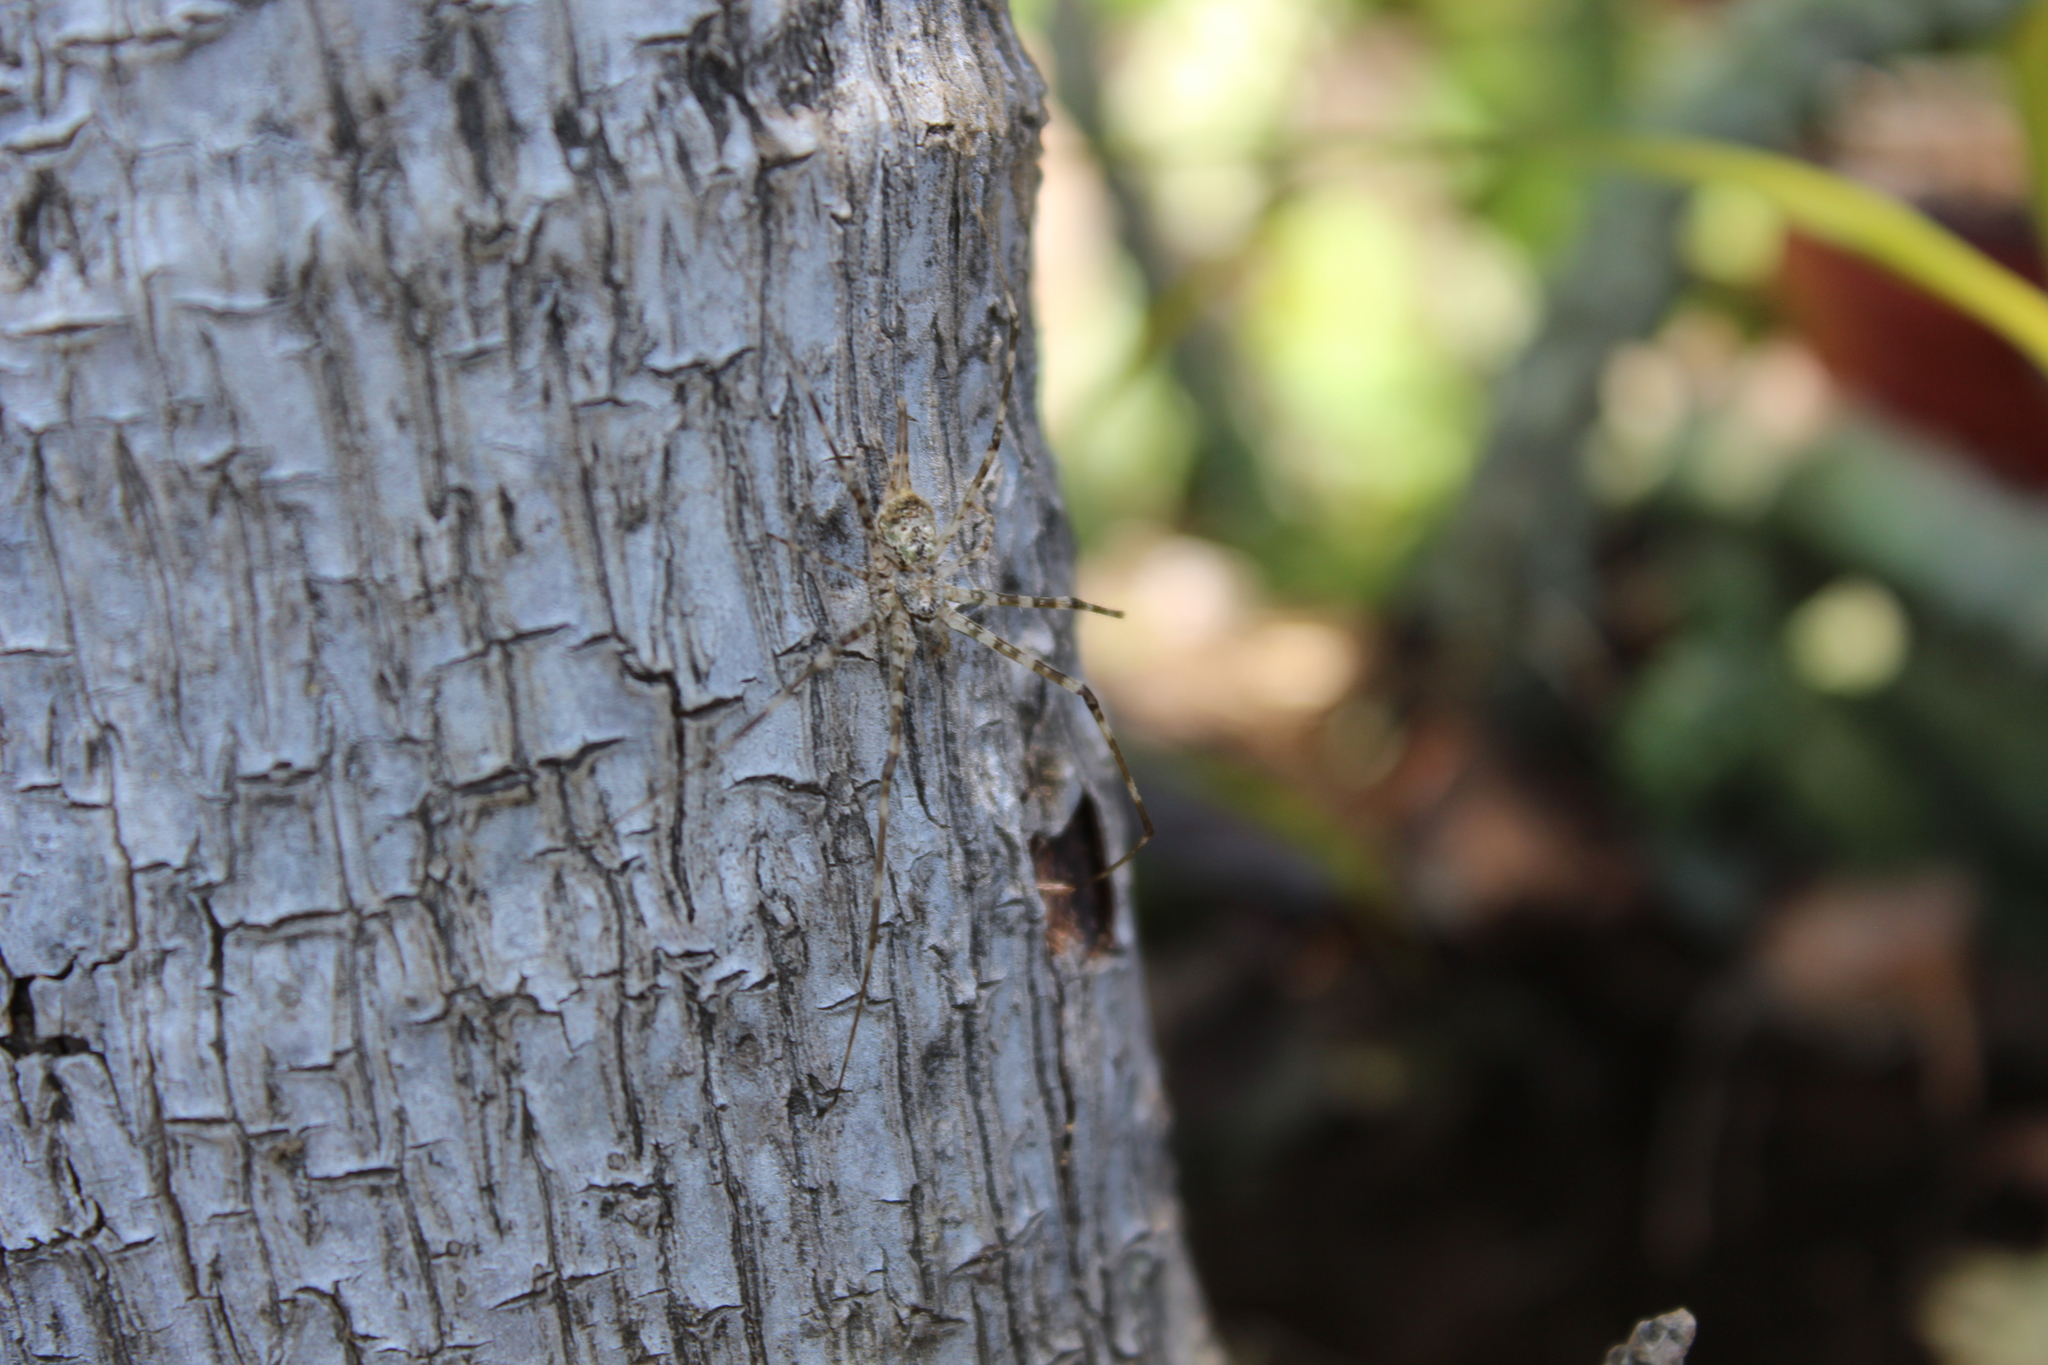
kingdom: Animalia
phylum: Arthropoda
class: Arachnida
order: Araneae
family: Hersiliidae
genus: Neotama
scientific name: Neotama mexicana
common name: Tree trunk spiders
